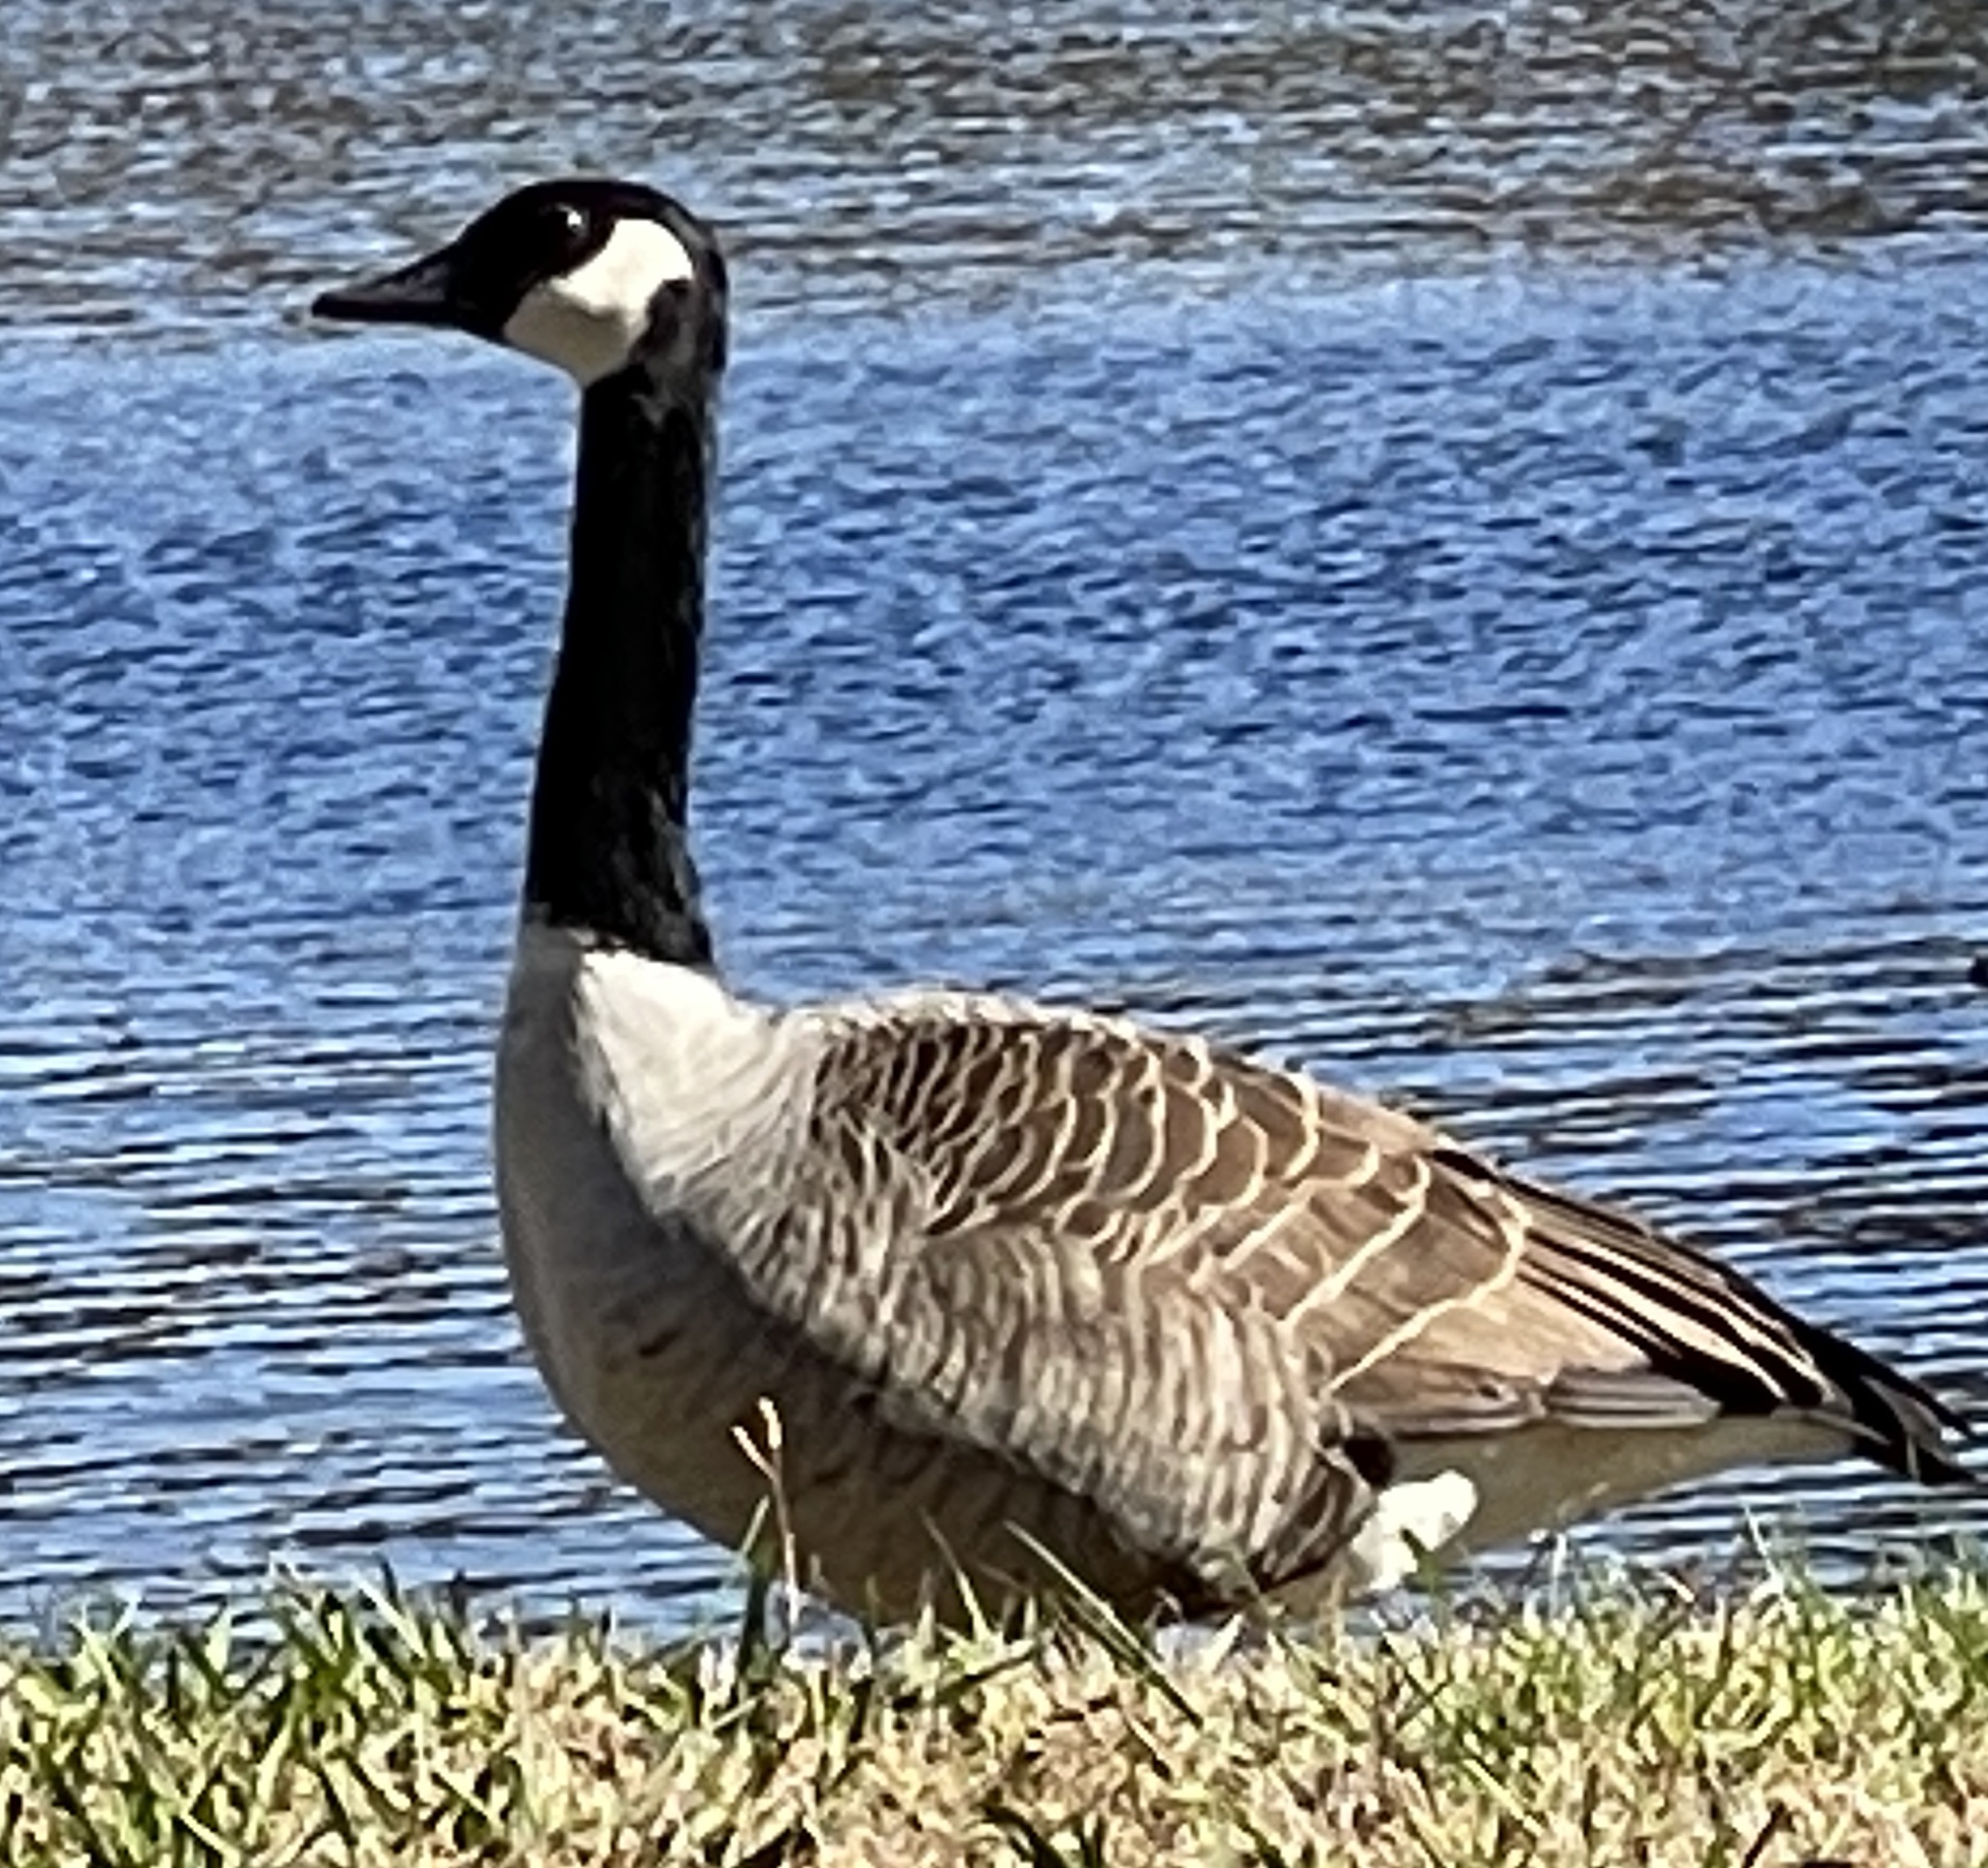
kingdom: Animalia
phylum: Chordata
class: Aves
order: Anseriformes
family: Anatidae
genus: Branta
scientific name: Branta canadensis
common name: Canada goose
